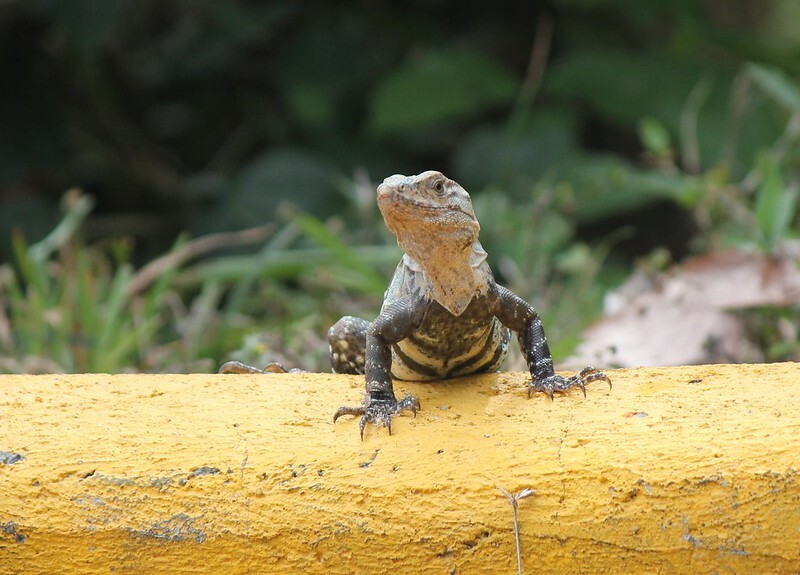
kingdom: Animalia
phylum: Chordata
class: Squamata
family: Iguanidae
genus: Ctenosaura
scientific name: Ctenosaura similis
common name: Black spiny-tailed iguana
